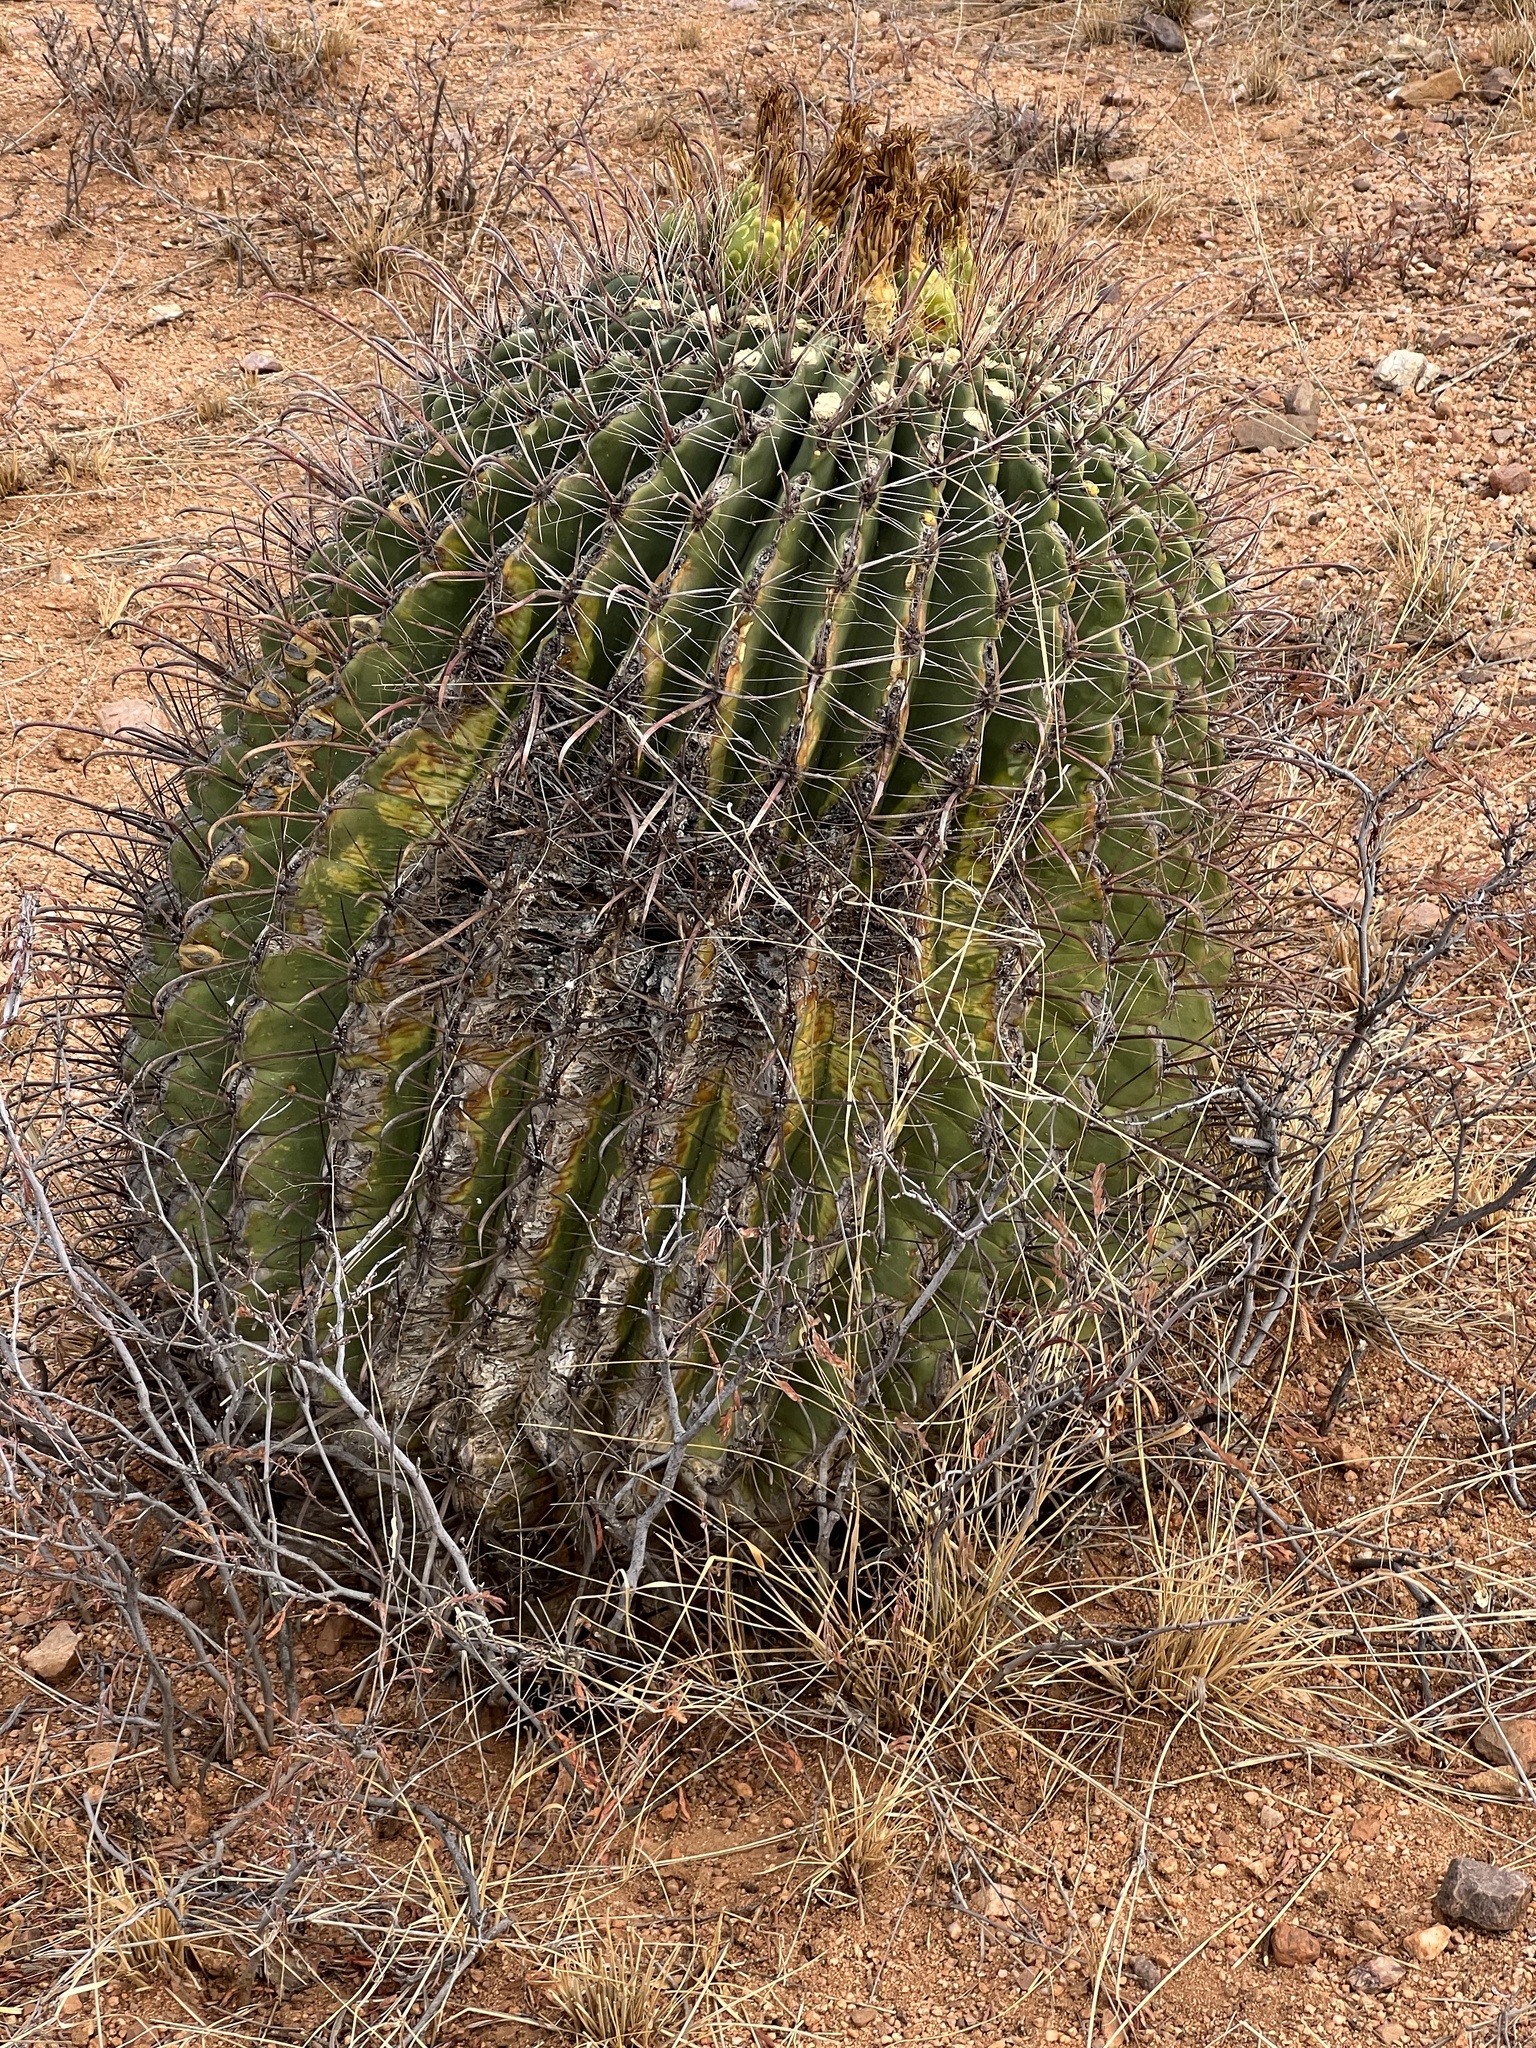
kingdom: Plantae
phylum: Tracheophyta
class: Magnoliopsida
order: Caryophyllales
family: Cactaceae
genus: Ferocactus
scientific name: Ferocactus wislizeni
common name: Candy barrel cactus
